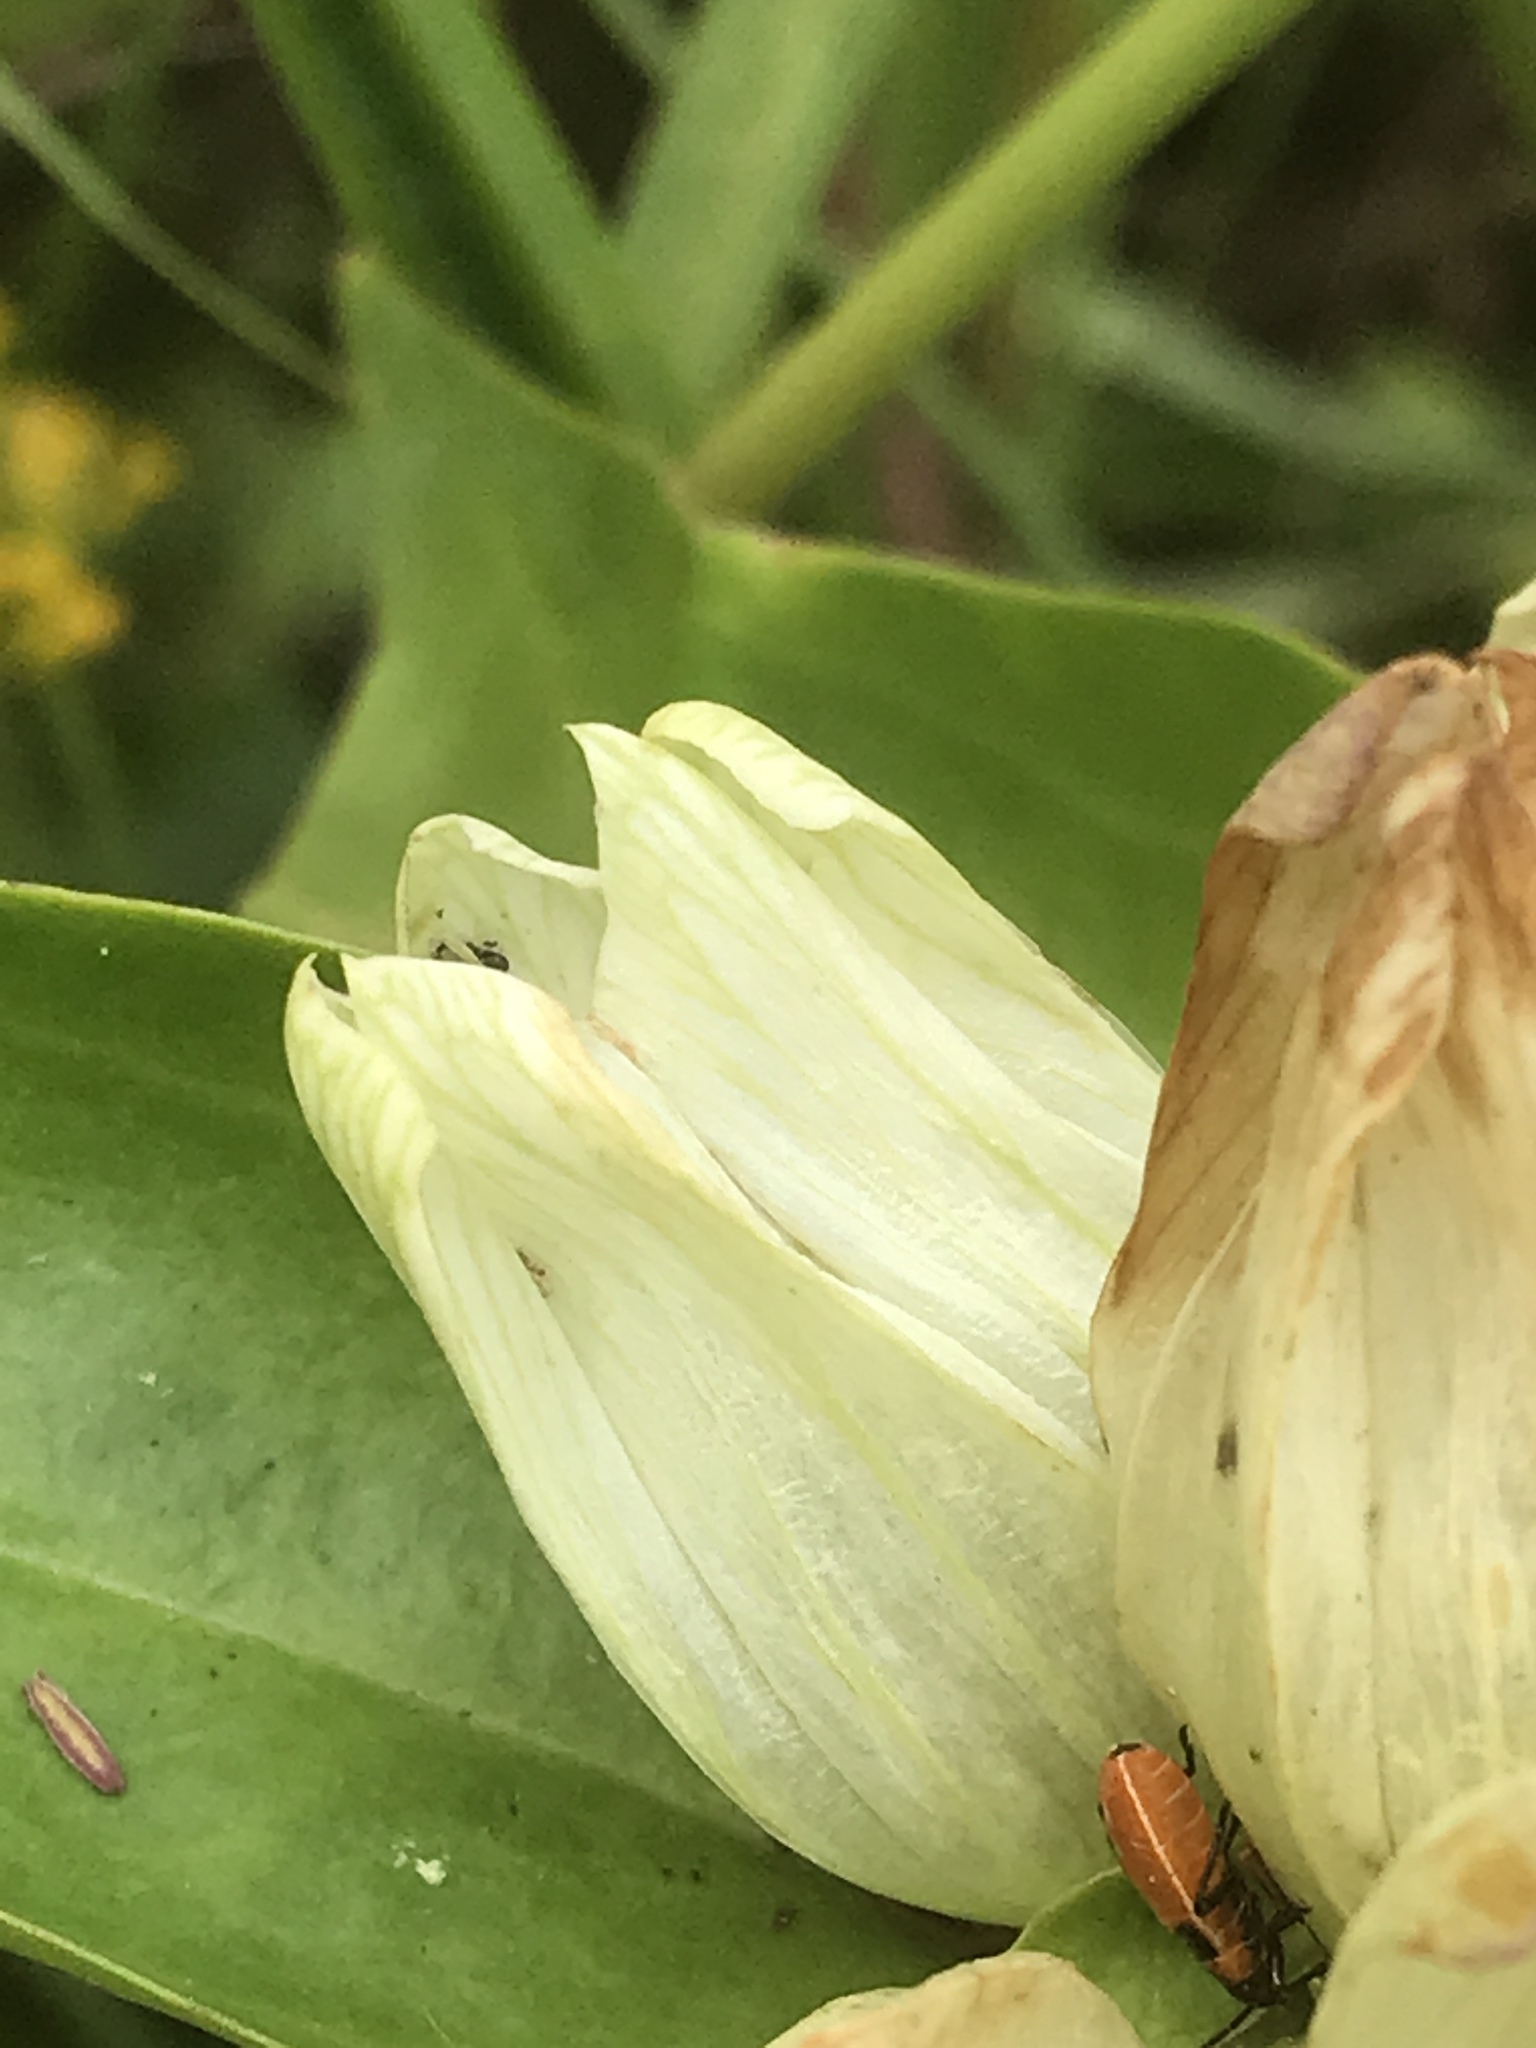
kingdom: Plantae
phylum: Tracheophyta
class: Magnoliopsida
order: Gentianales
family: Gentianaceae
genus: Gentiana
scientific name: Gentiana alba
